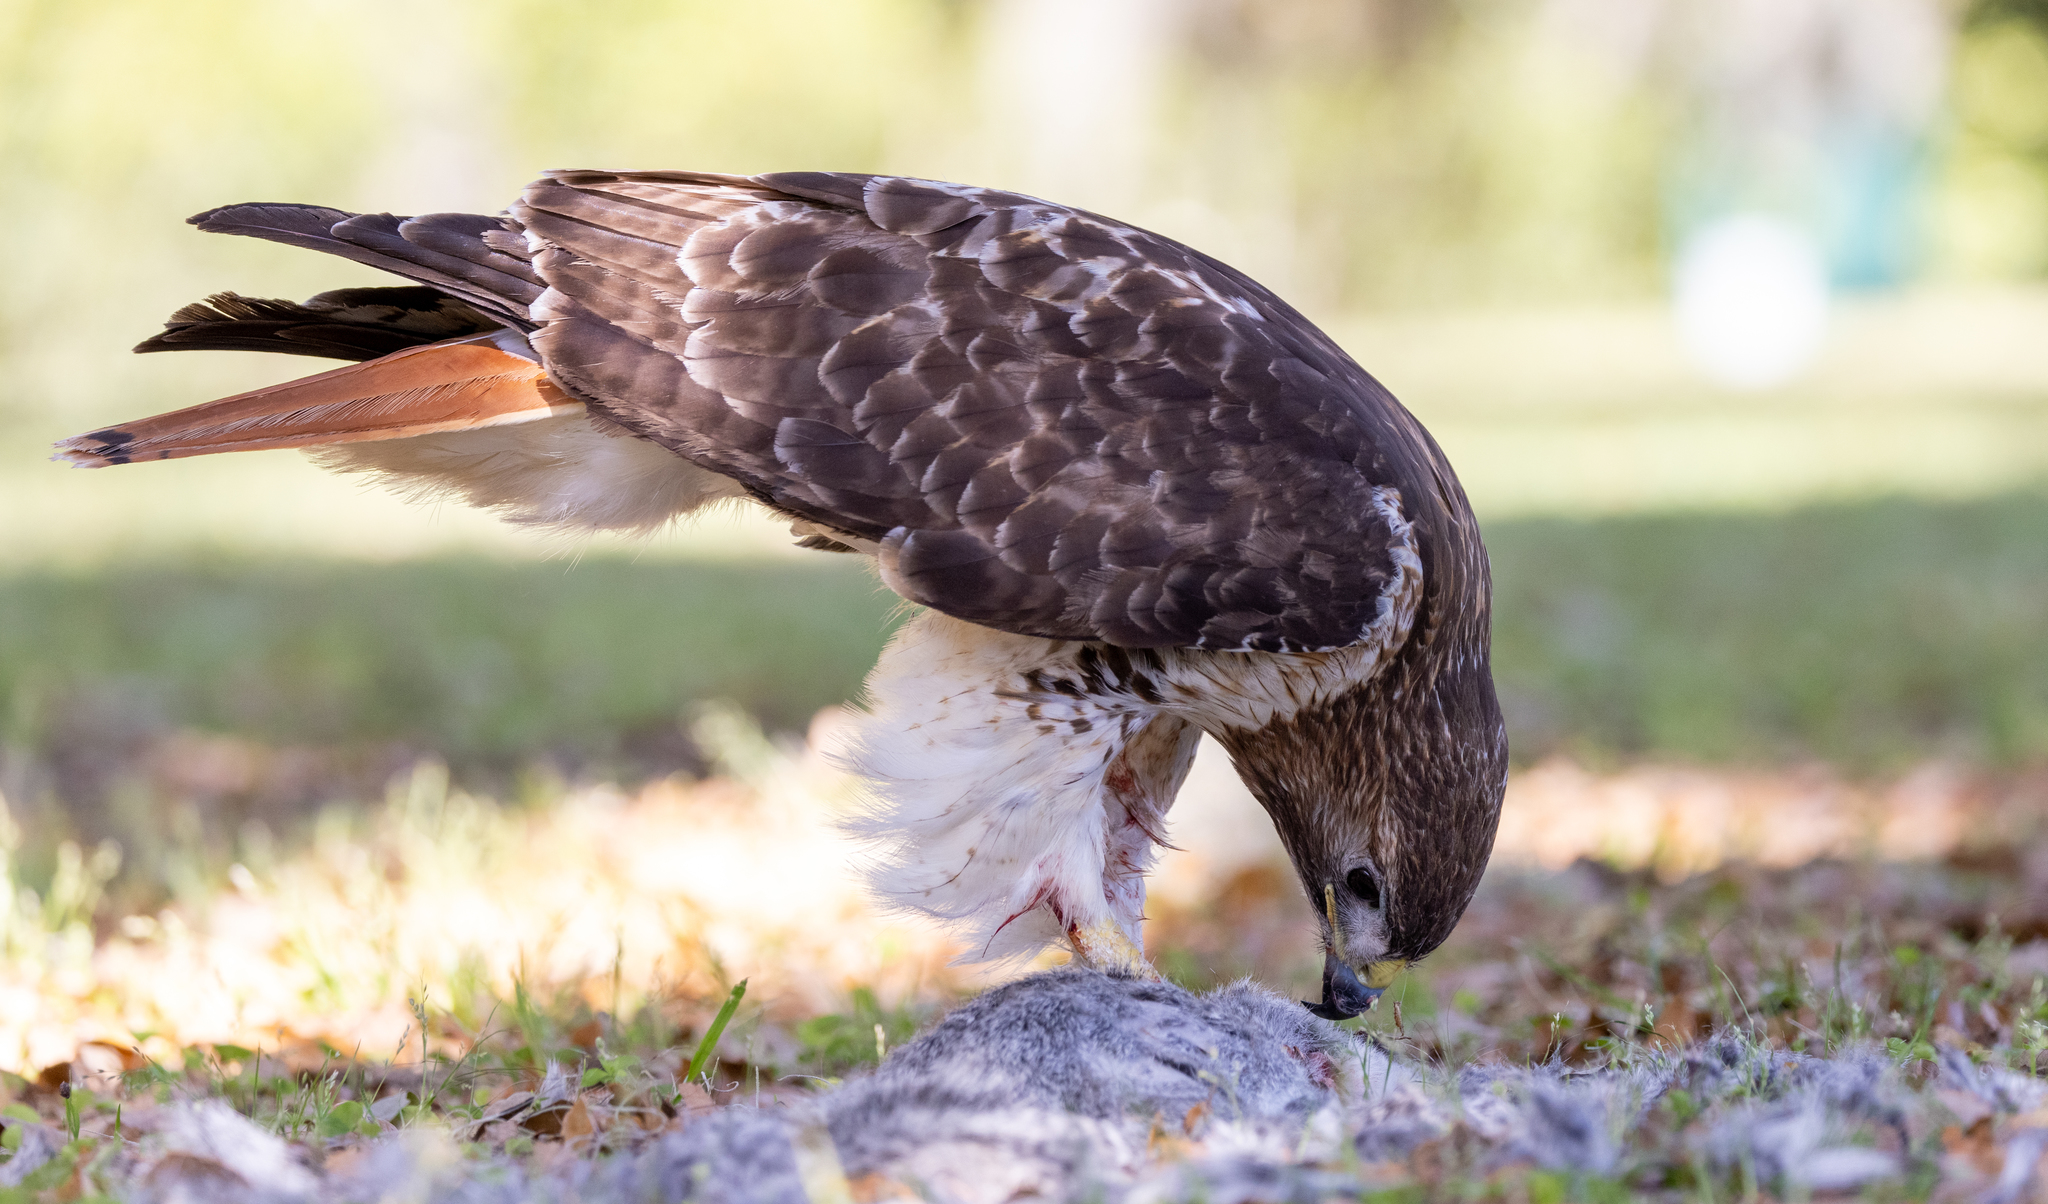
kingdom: Animalia
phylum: Chordata
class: Aves
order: Accipitriformes
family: Accipitridae
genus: Buteo
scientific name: Buteo jamaicensis
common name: Red-tailed hawk
